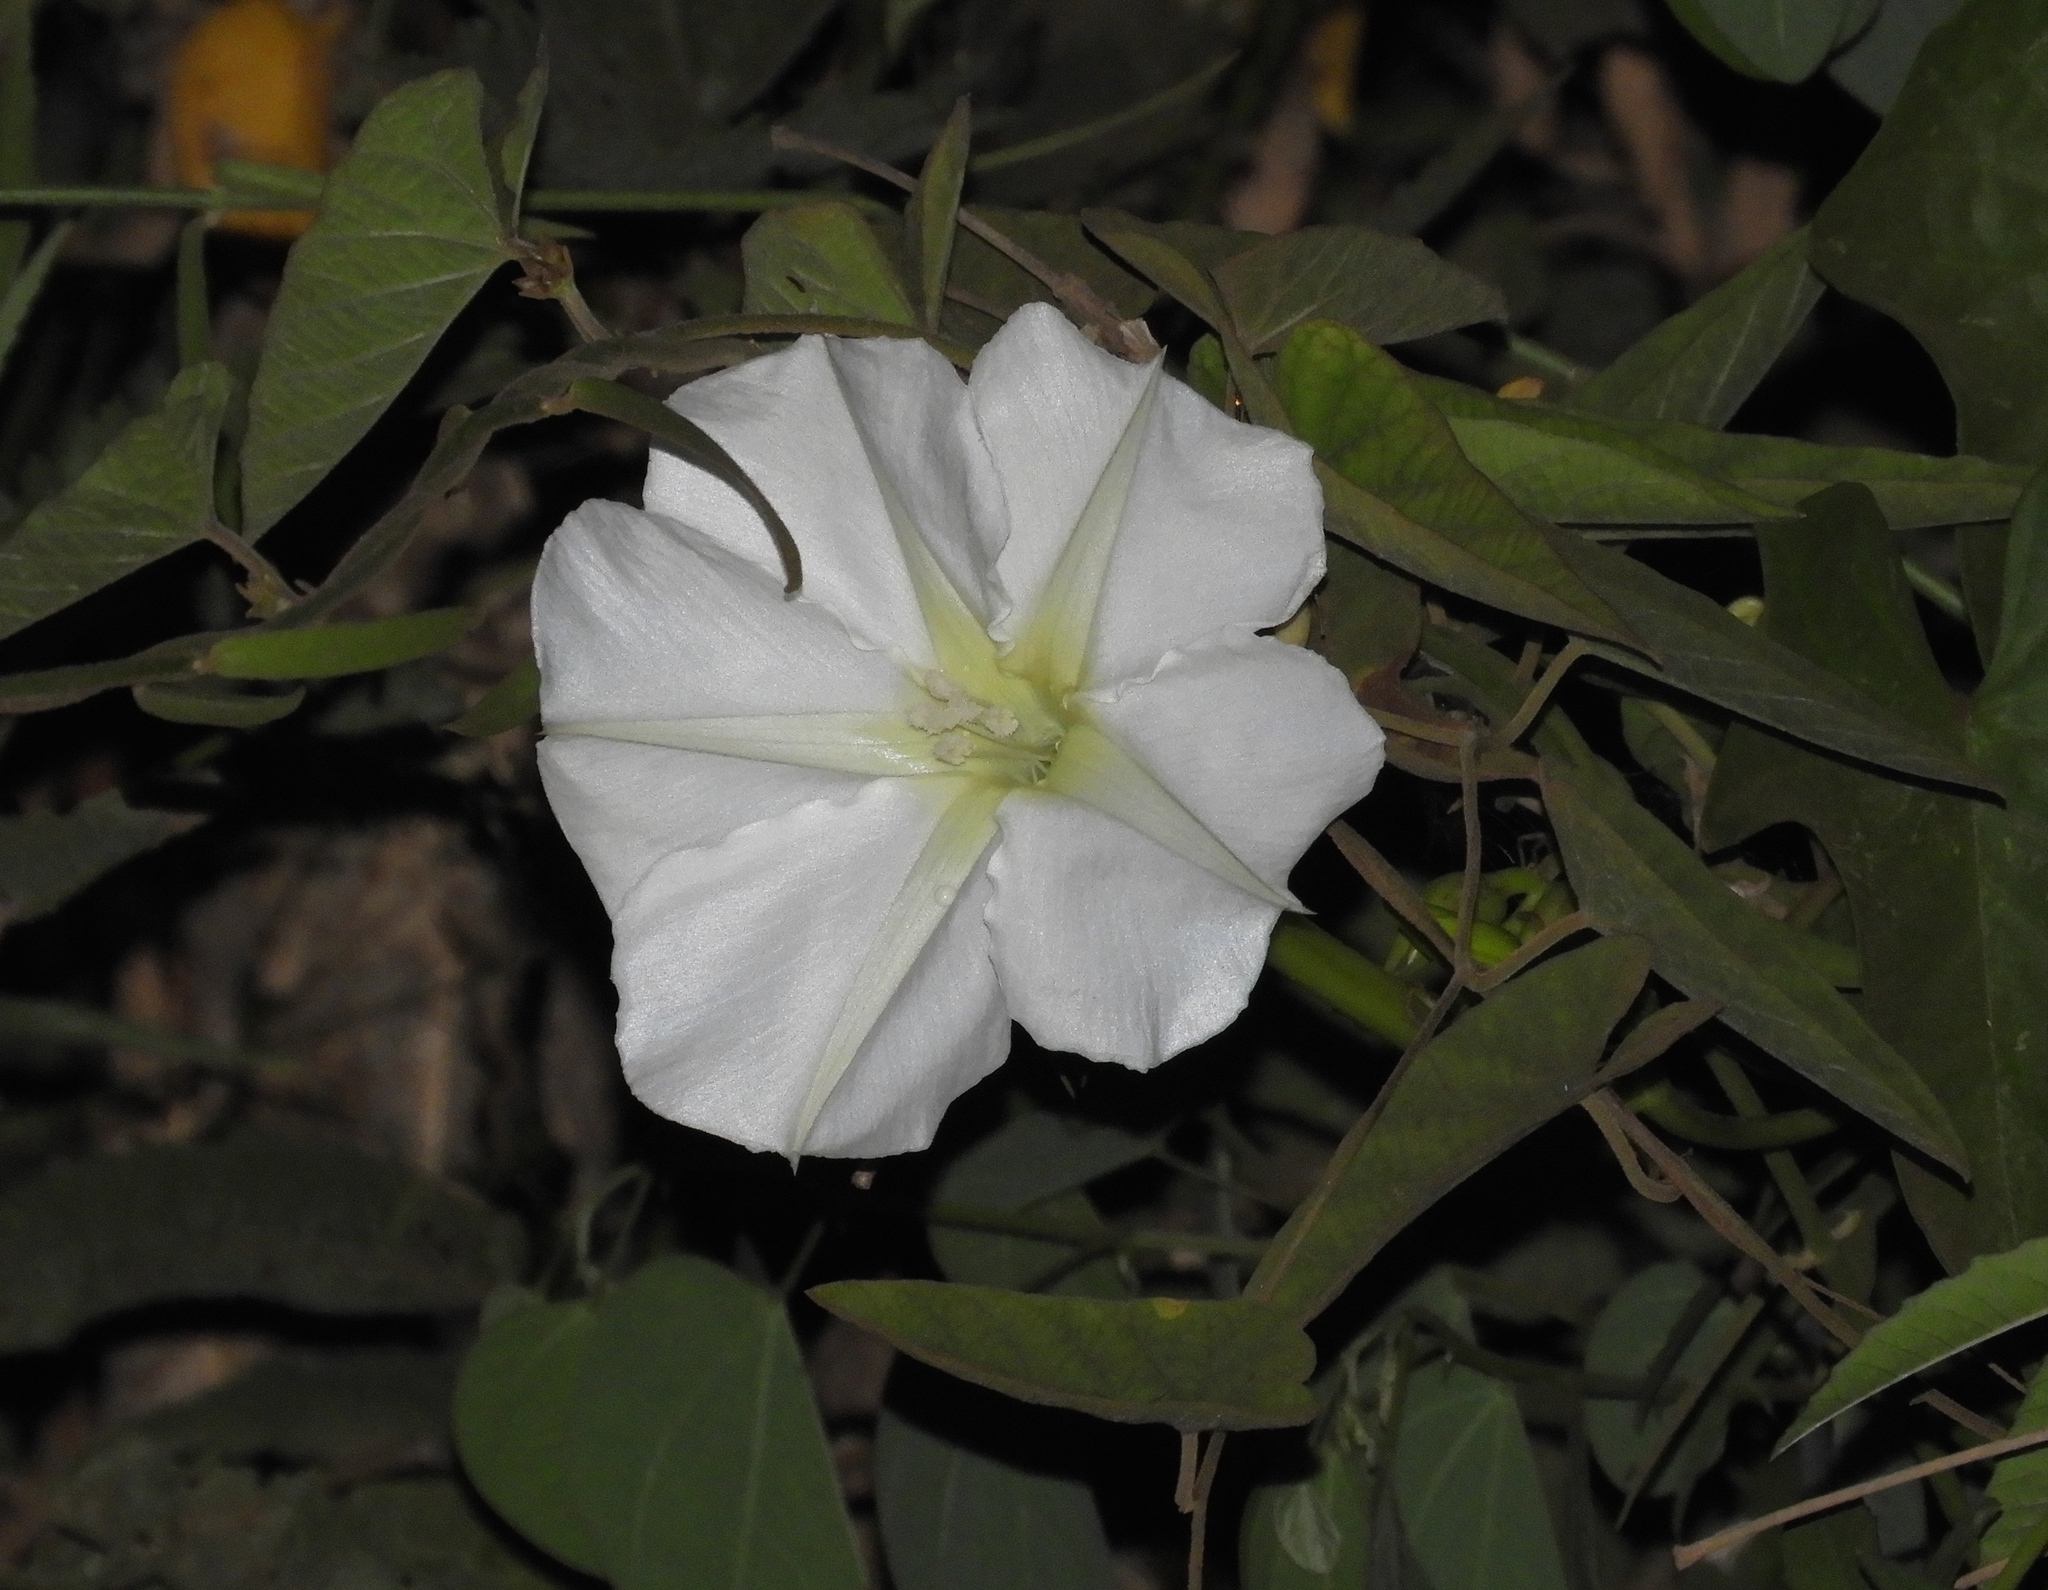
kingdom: Plantae
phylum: Tracheophyta
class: Magnoliopsida
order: Solanales
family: Convolvulaceae
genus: Ipomoea
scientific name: Ipomoea alba
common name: Moonflower
